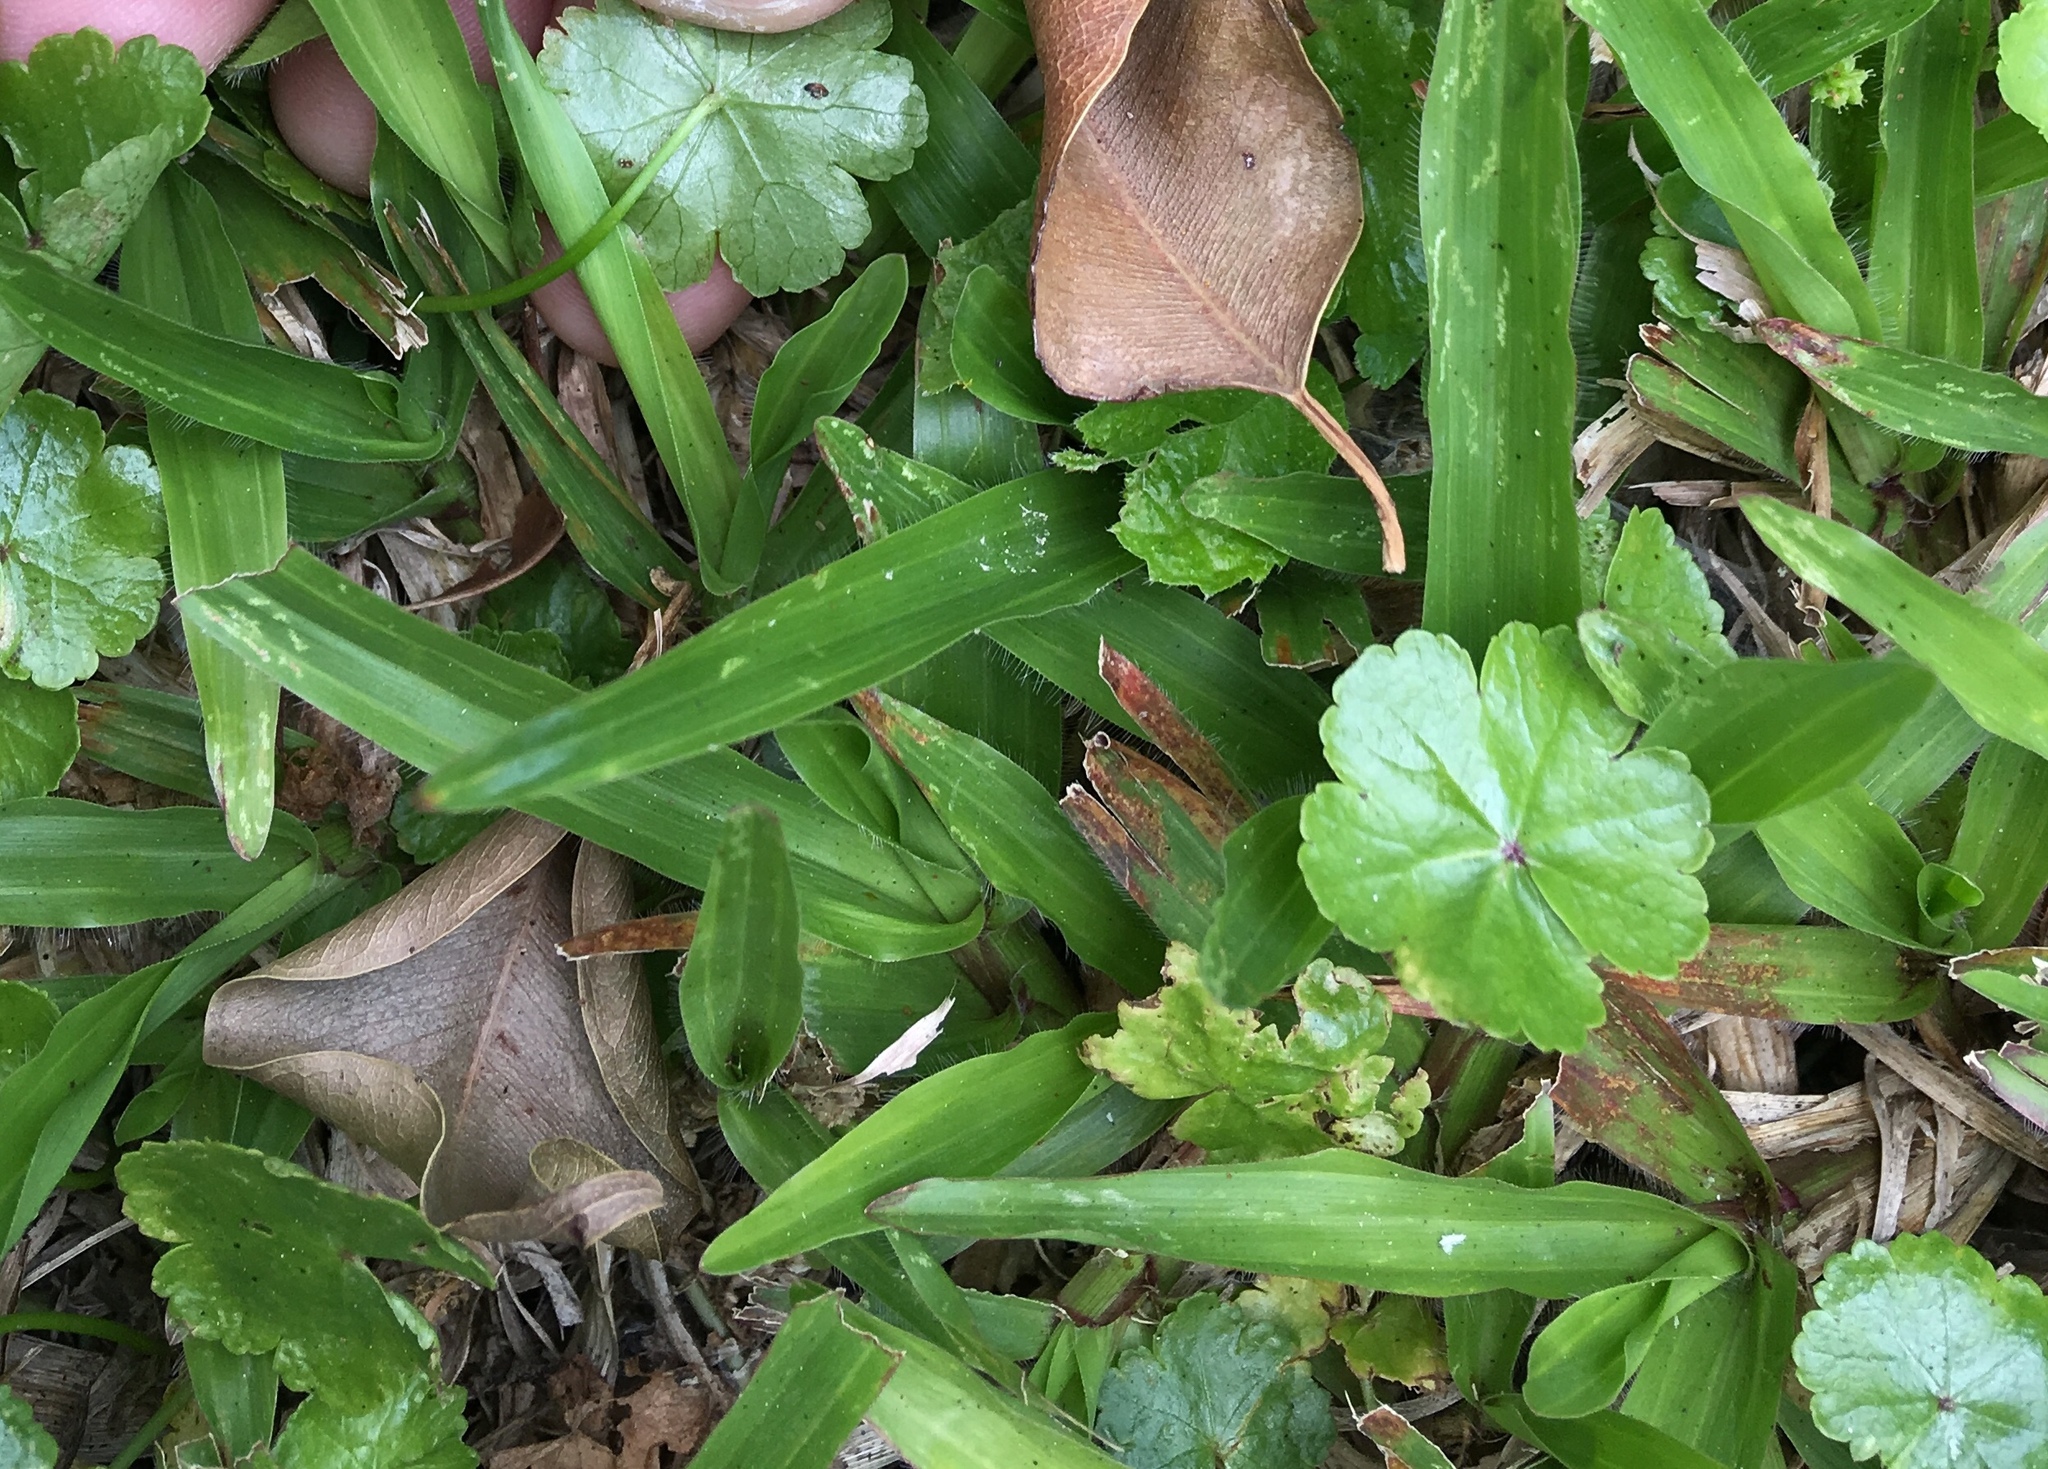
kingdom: Plantae
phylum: Tracheophyta
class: Magnoliopsida
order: Apiales
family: Araliaceae
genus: Hydrocotyle
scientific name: Hydrocotyle sibthorpioides
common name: Lawn marshpennywort
